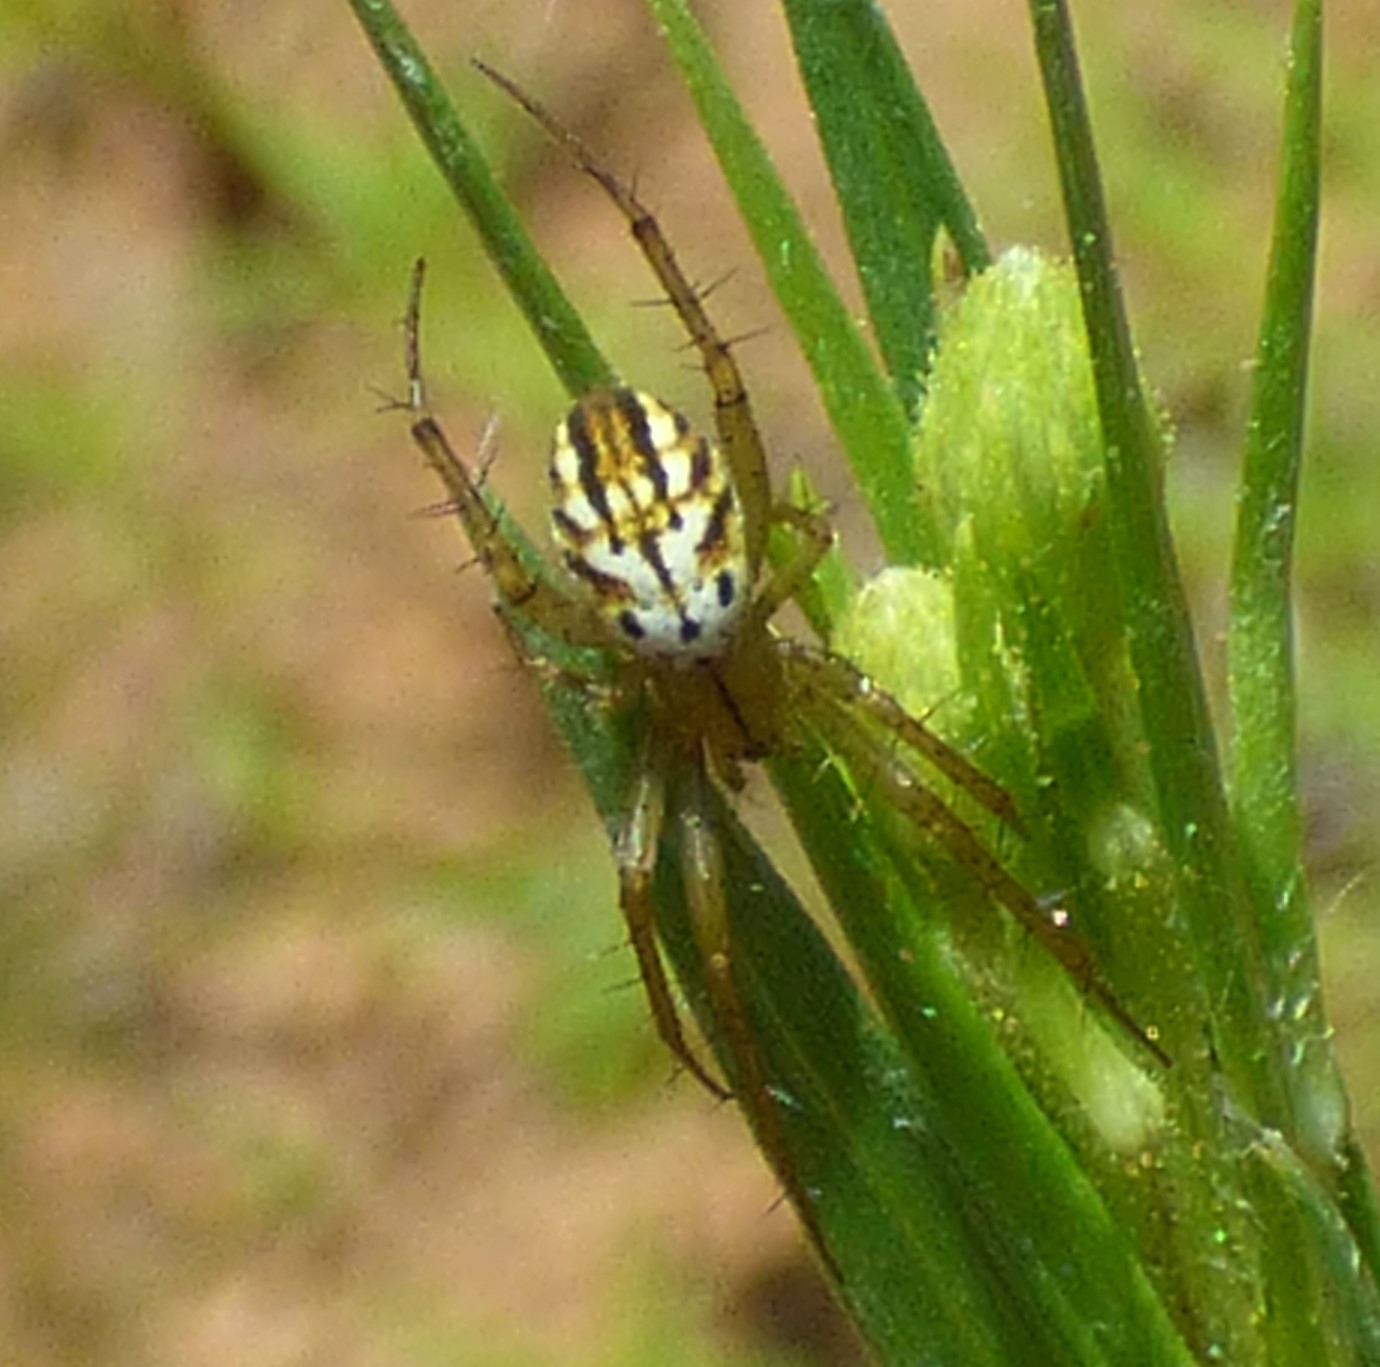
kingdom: Animalia
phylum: Arthropoda
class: Arachnida
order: Araneae
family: Araneidae
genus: Mangora
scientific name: Mangora gibberosa
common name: Lined orbweaver
